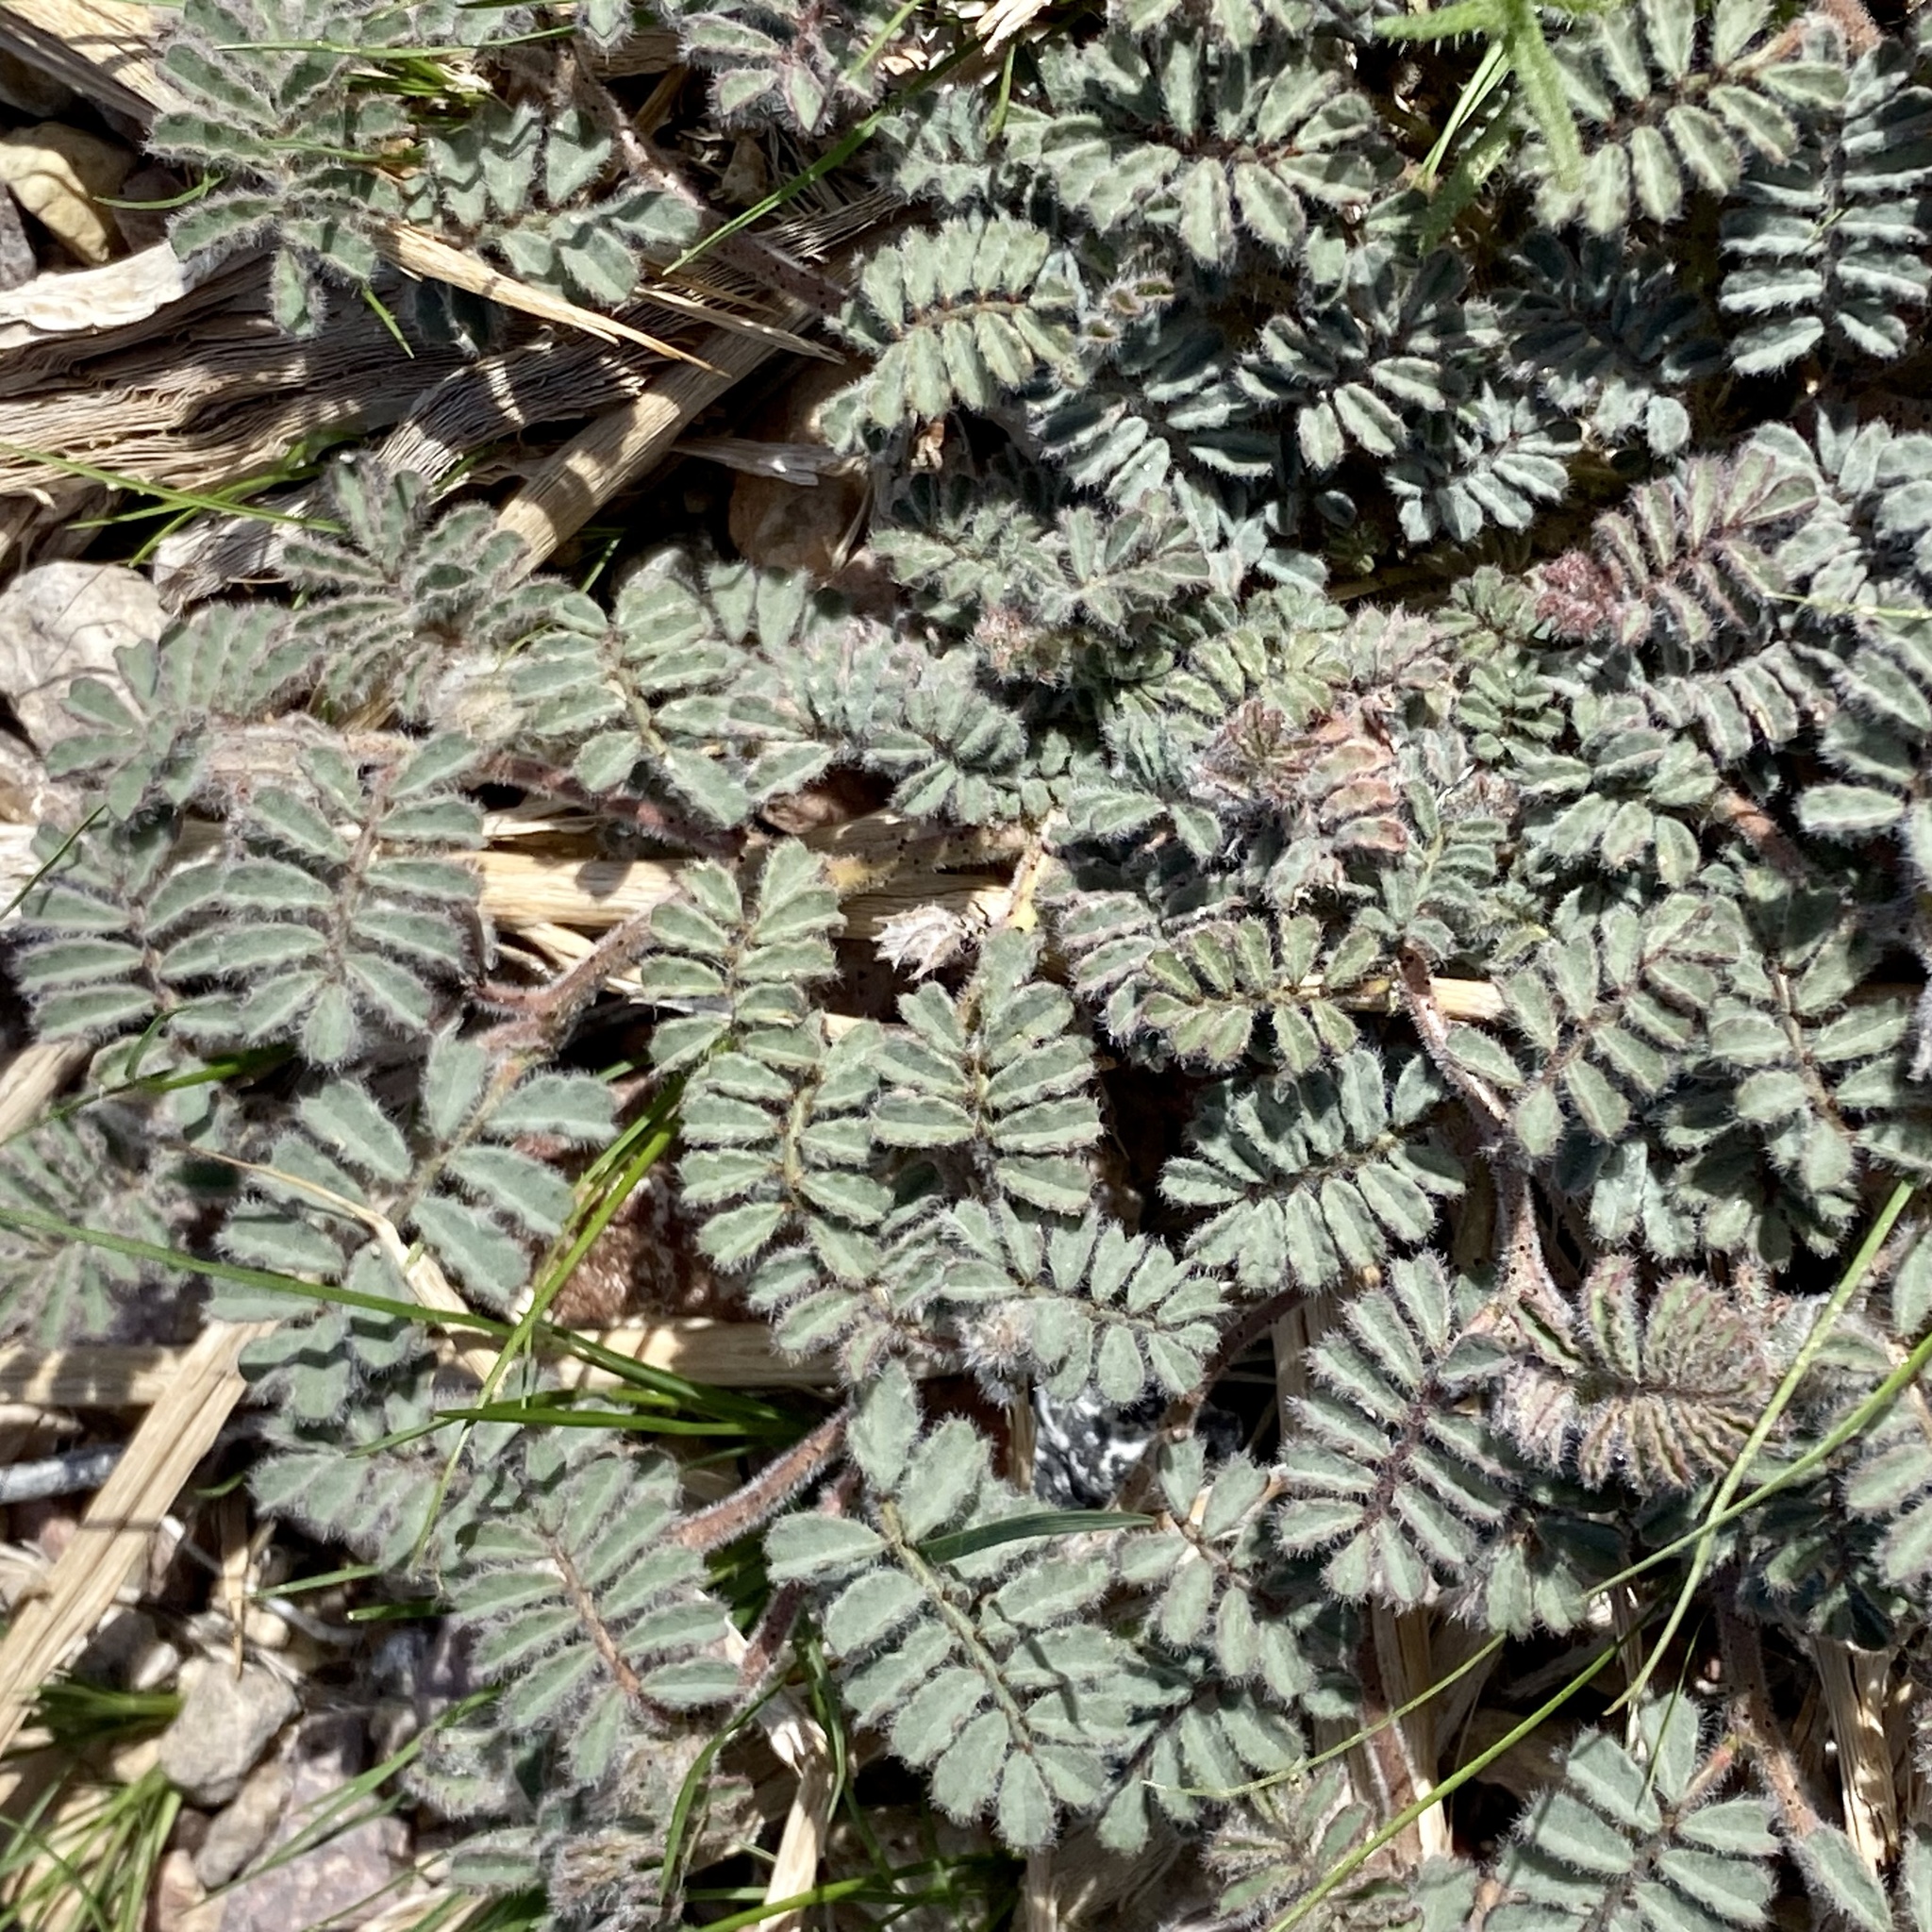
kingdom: Plantae
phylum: Tracheophyta
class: Magnoliopsida
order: Fabales
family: Fabaceae
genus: Dalea
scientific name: Dalea mollissima
